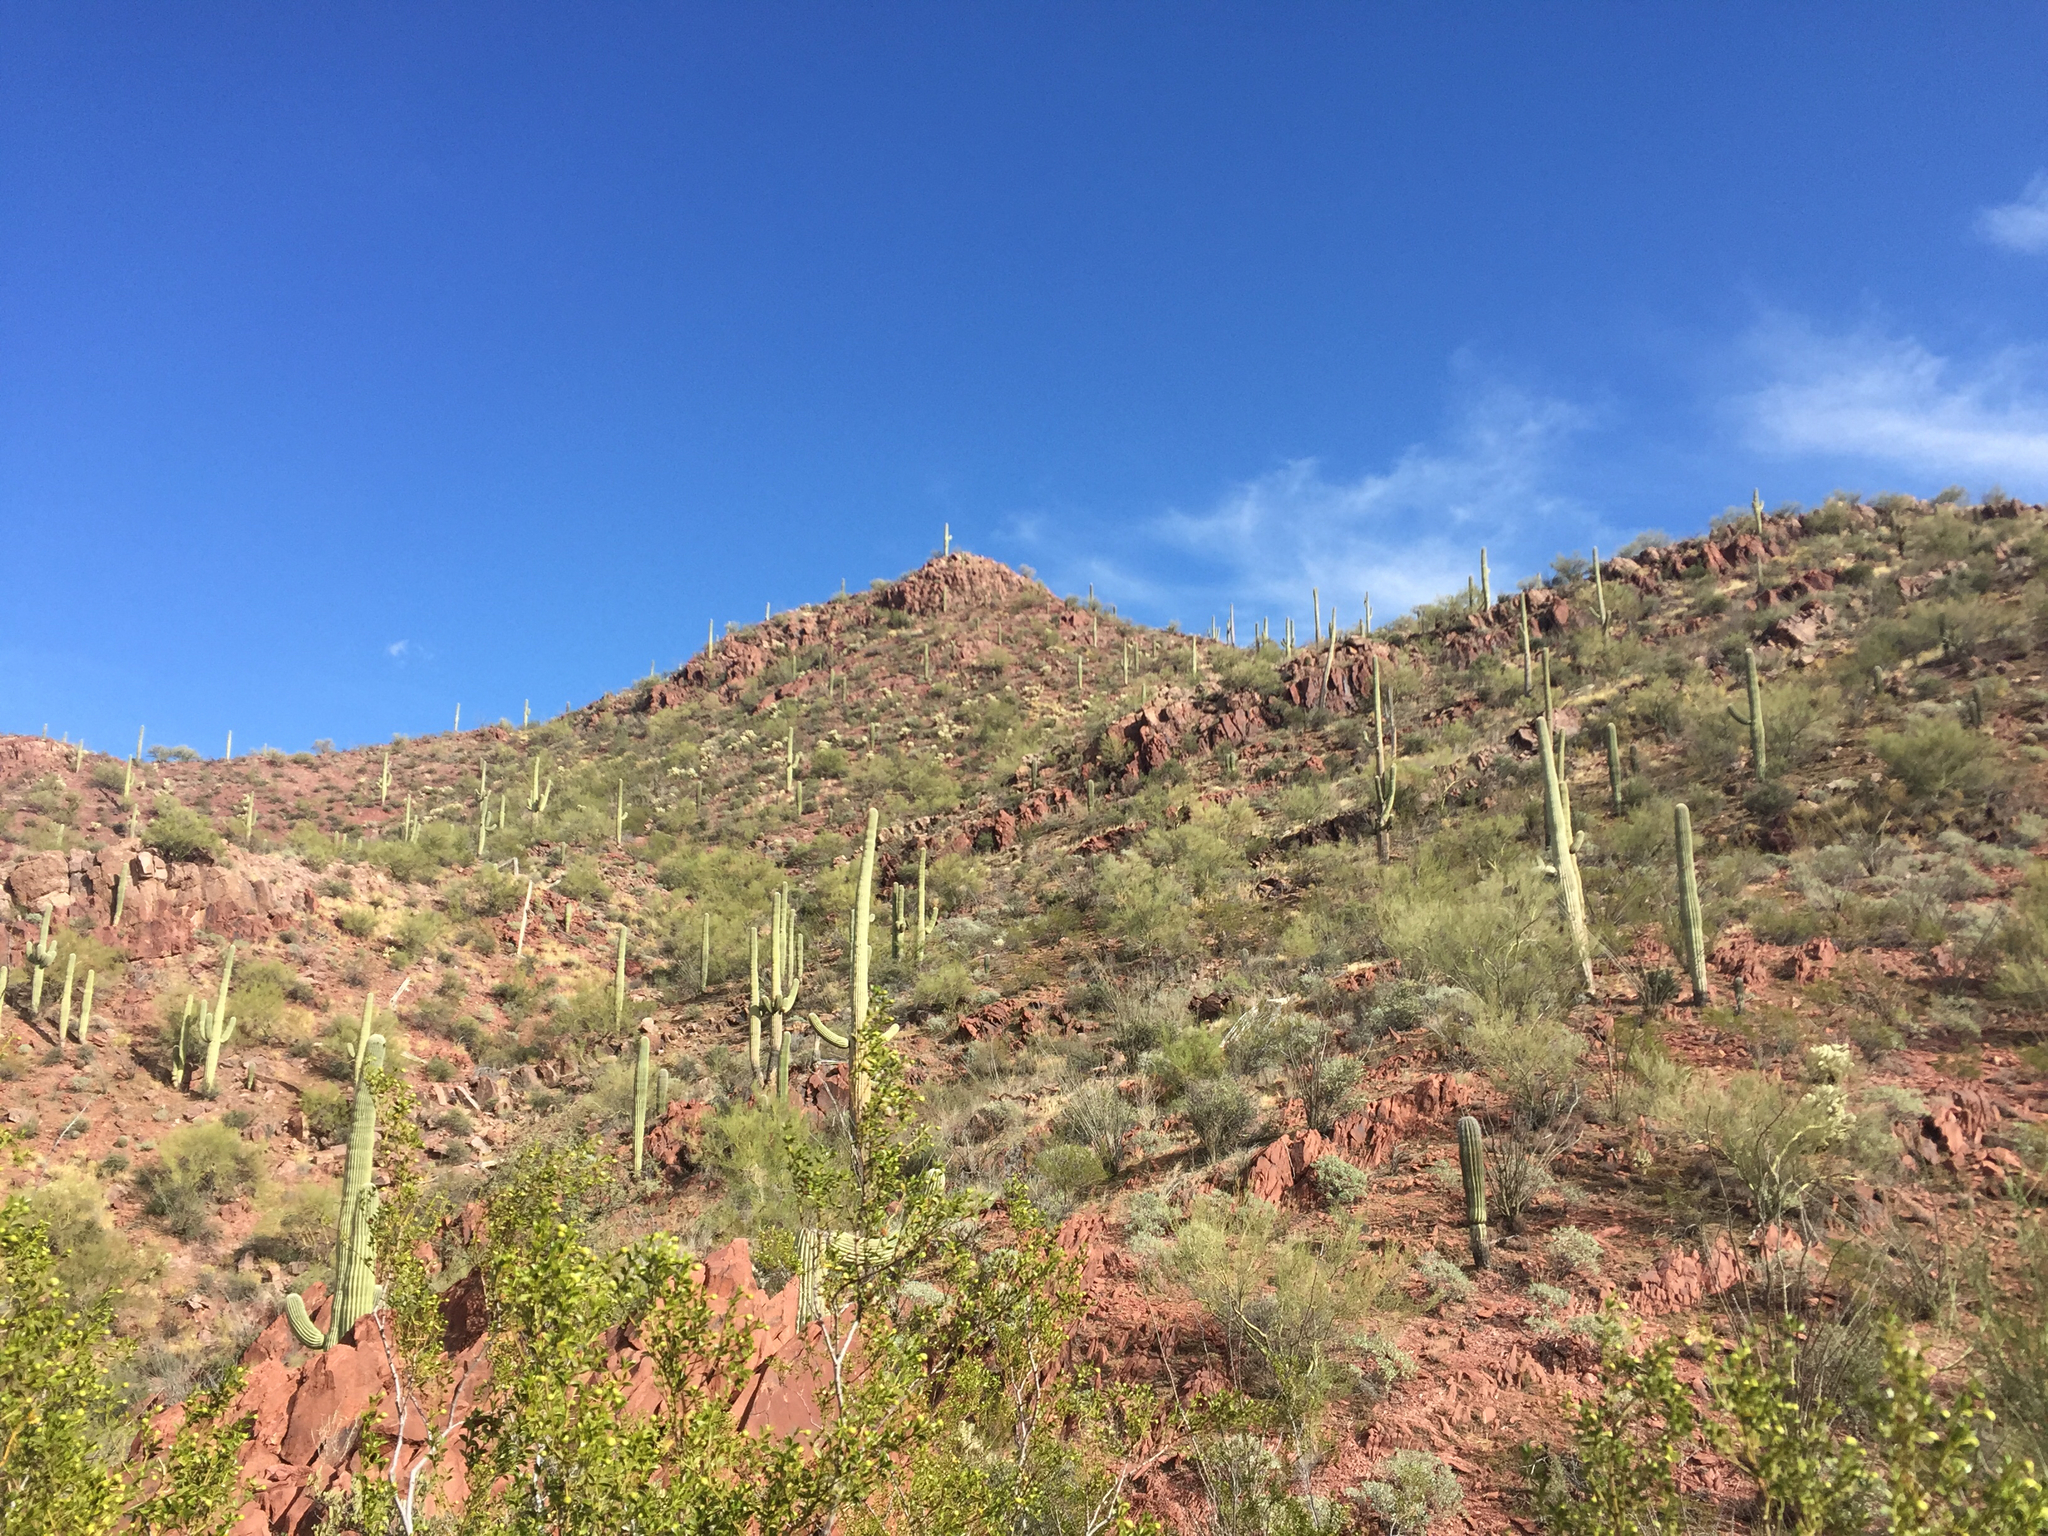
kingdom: Plantae
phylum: Tracheophyta
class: Magnoliopsida
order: Caryophyllales
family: Cactaceae
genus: Carnegiea
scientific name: Carnegiea gigantea
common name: Saguaro
